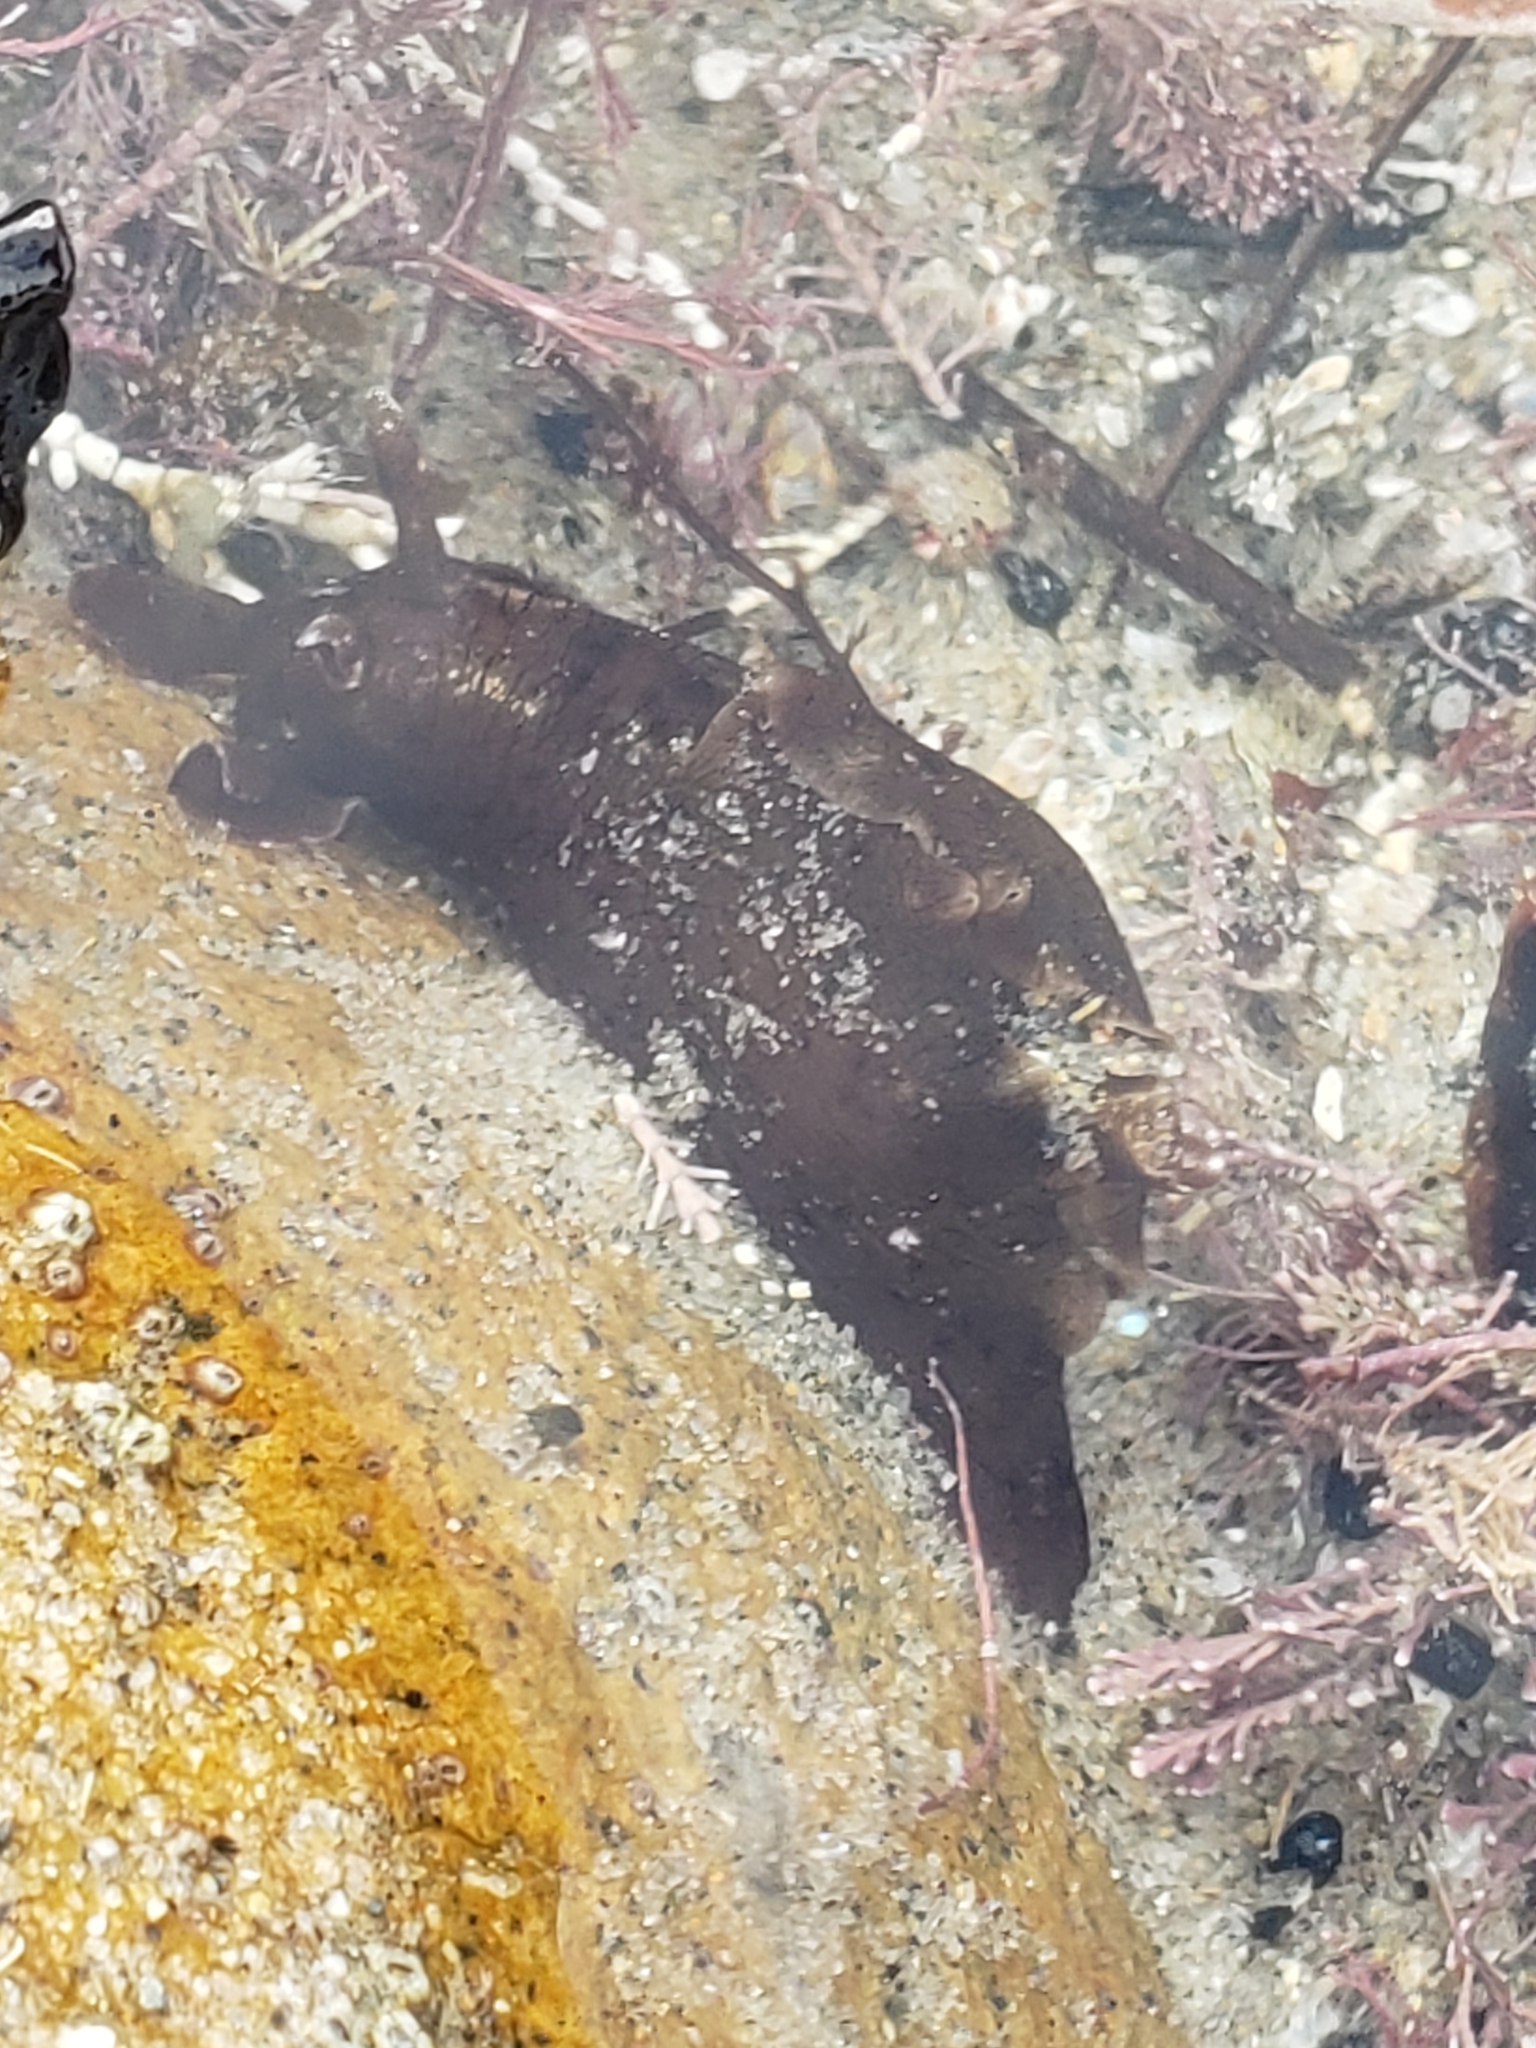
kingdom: Animalia
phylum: Mollusca
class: Gastropoda
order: Aplysiida
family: Aplysiidae
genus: Aplysia
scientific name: Aplysia californica
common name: California seahare
